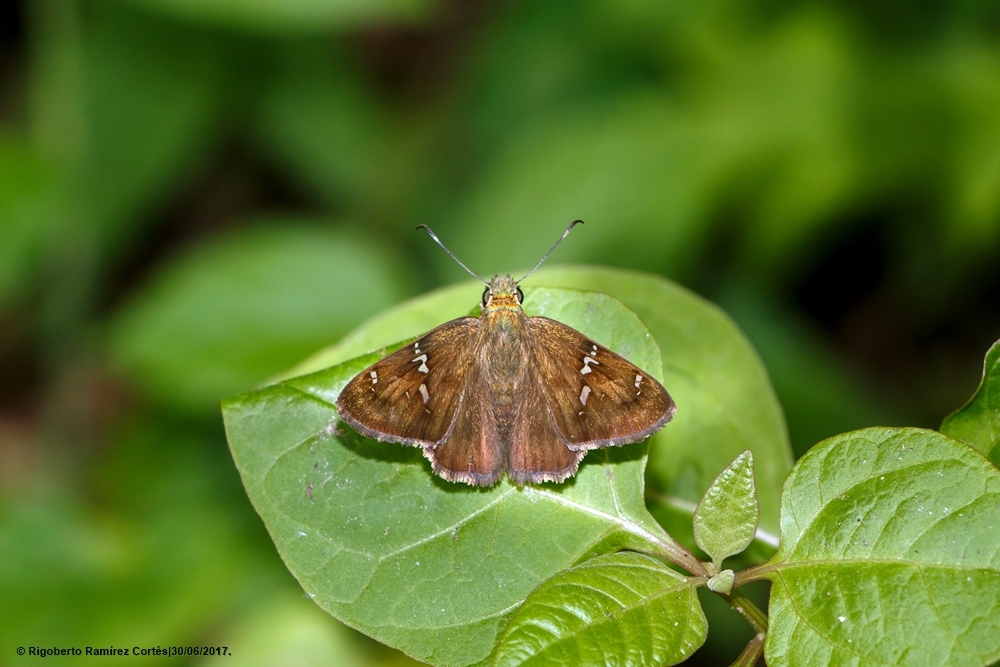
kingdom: Animalia
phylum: Arthropoda
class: Insecta
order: Lepidoptera
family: Hesperiidae
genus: Autochton
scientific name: Autochton potrillo
